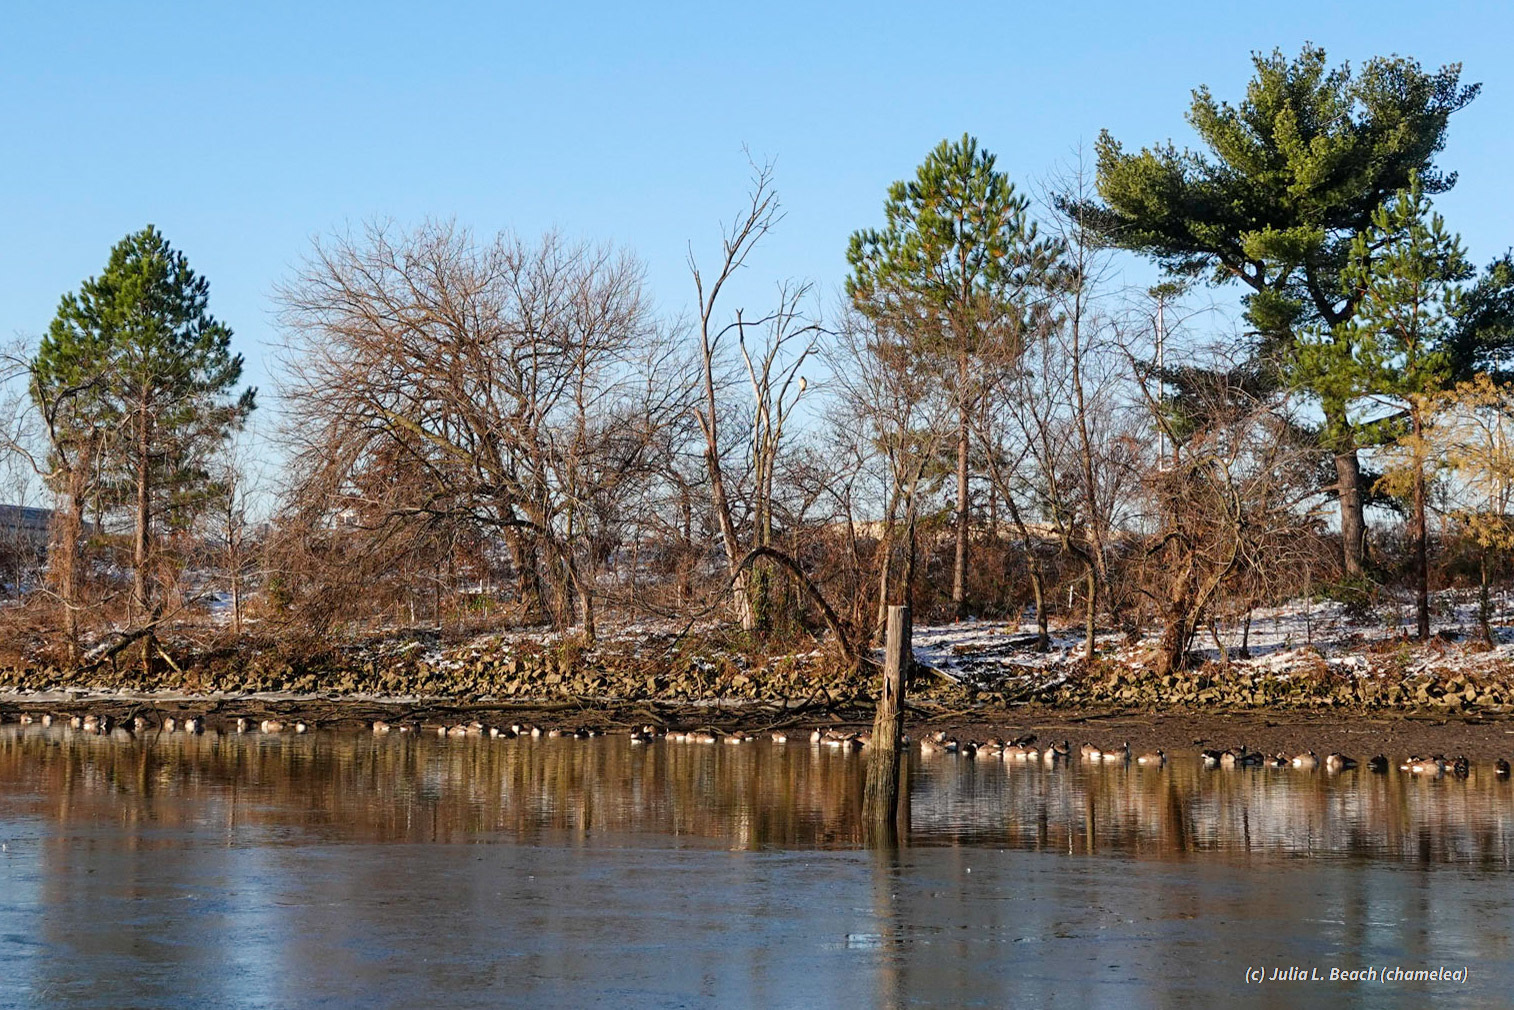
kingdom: Animalia
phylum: Chordata
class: Aves
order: Accipitriformes
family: Accipitridae
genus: Buteo
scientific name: Buteo lineatus
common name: Red-shouldered hawk
